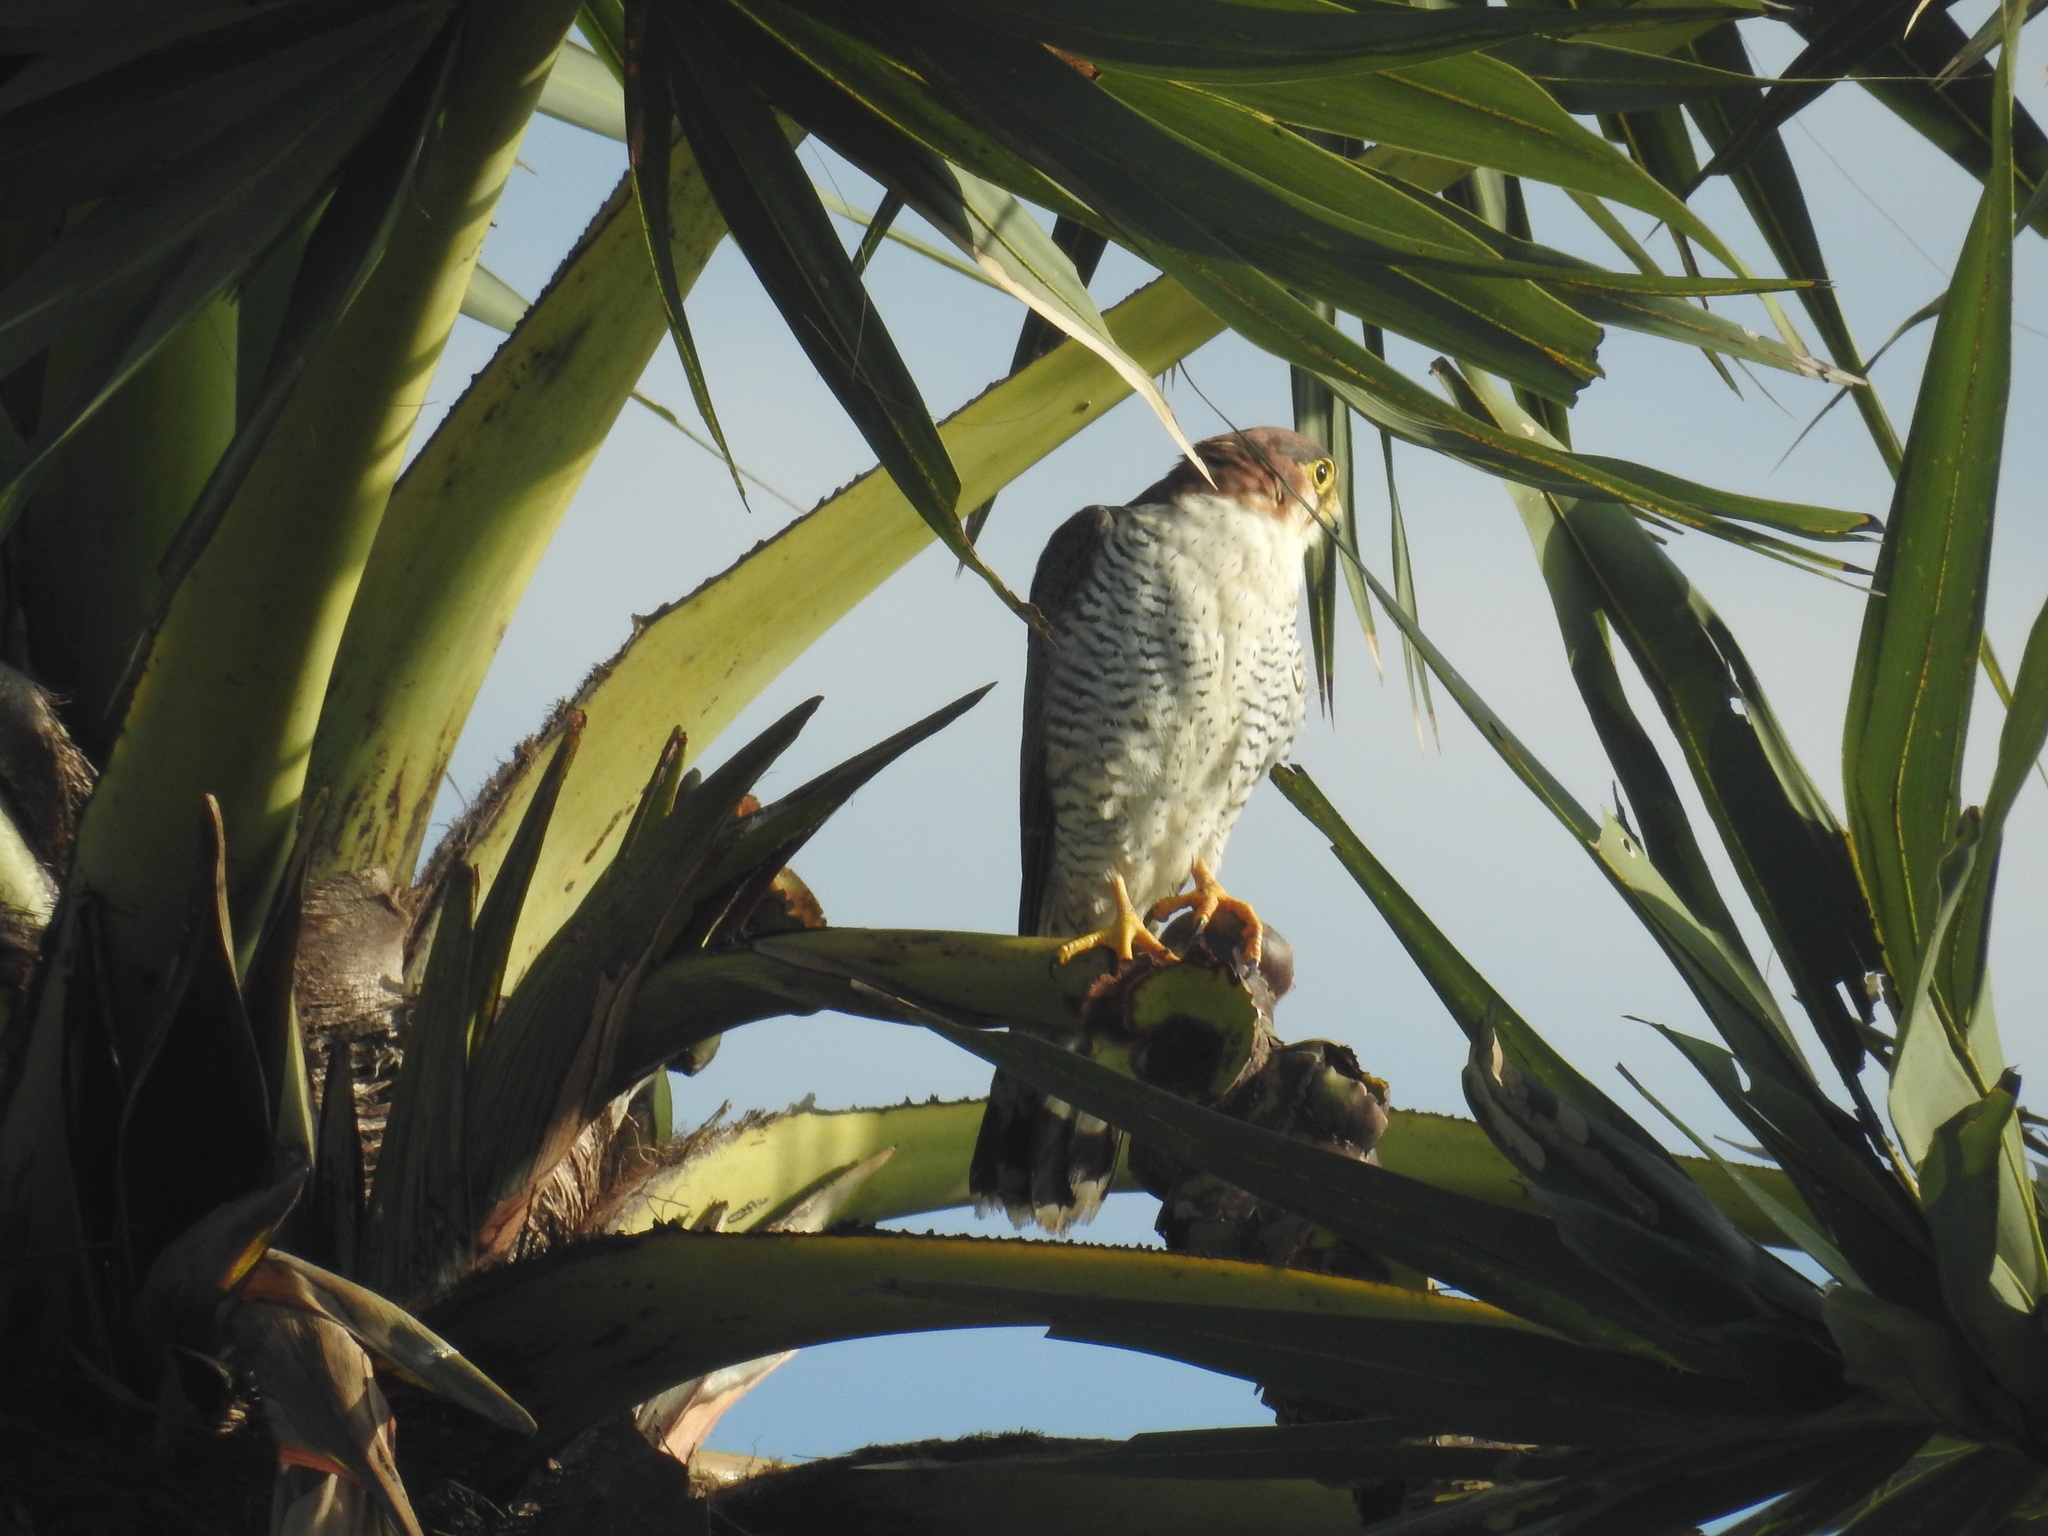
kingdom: Animalia
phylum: Chordata
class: Aves
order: Falconiformes
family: Falconidae
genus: Falco
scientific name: Falco chicquera
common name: Red-necked falcon
